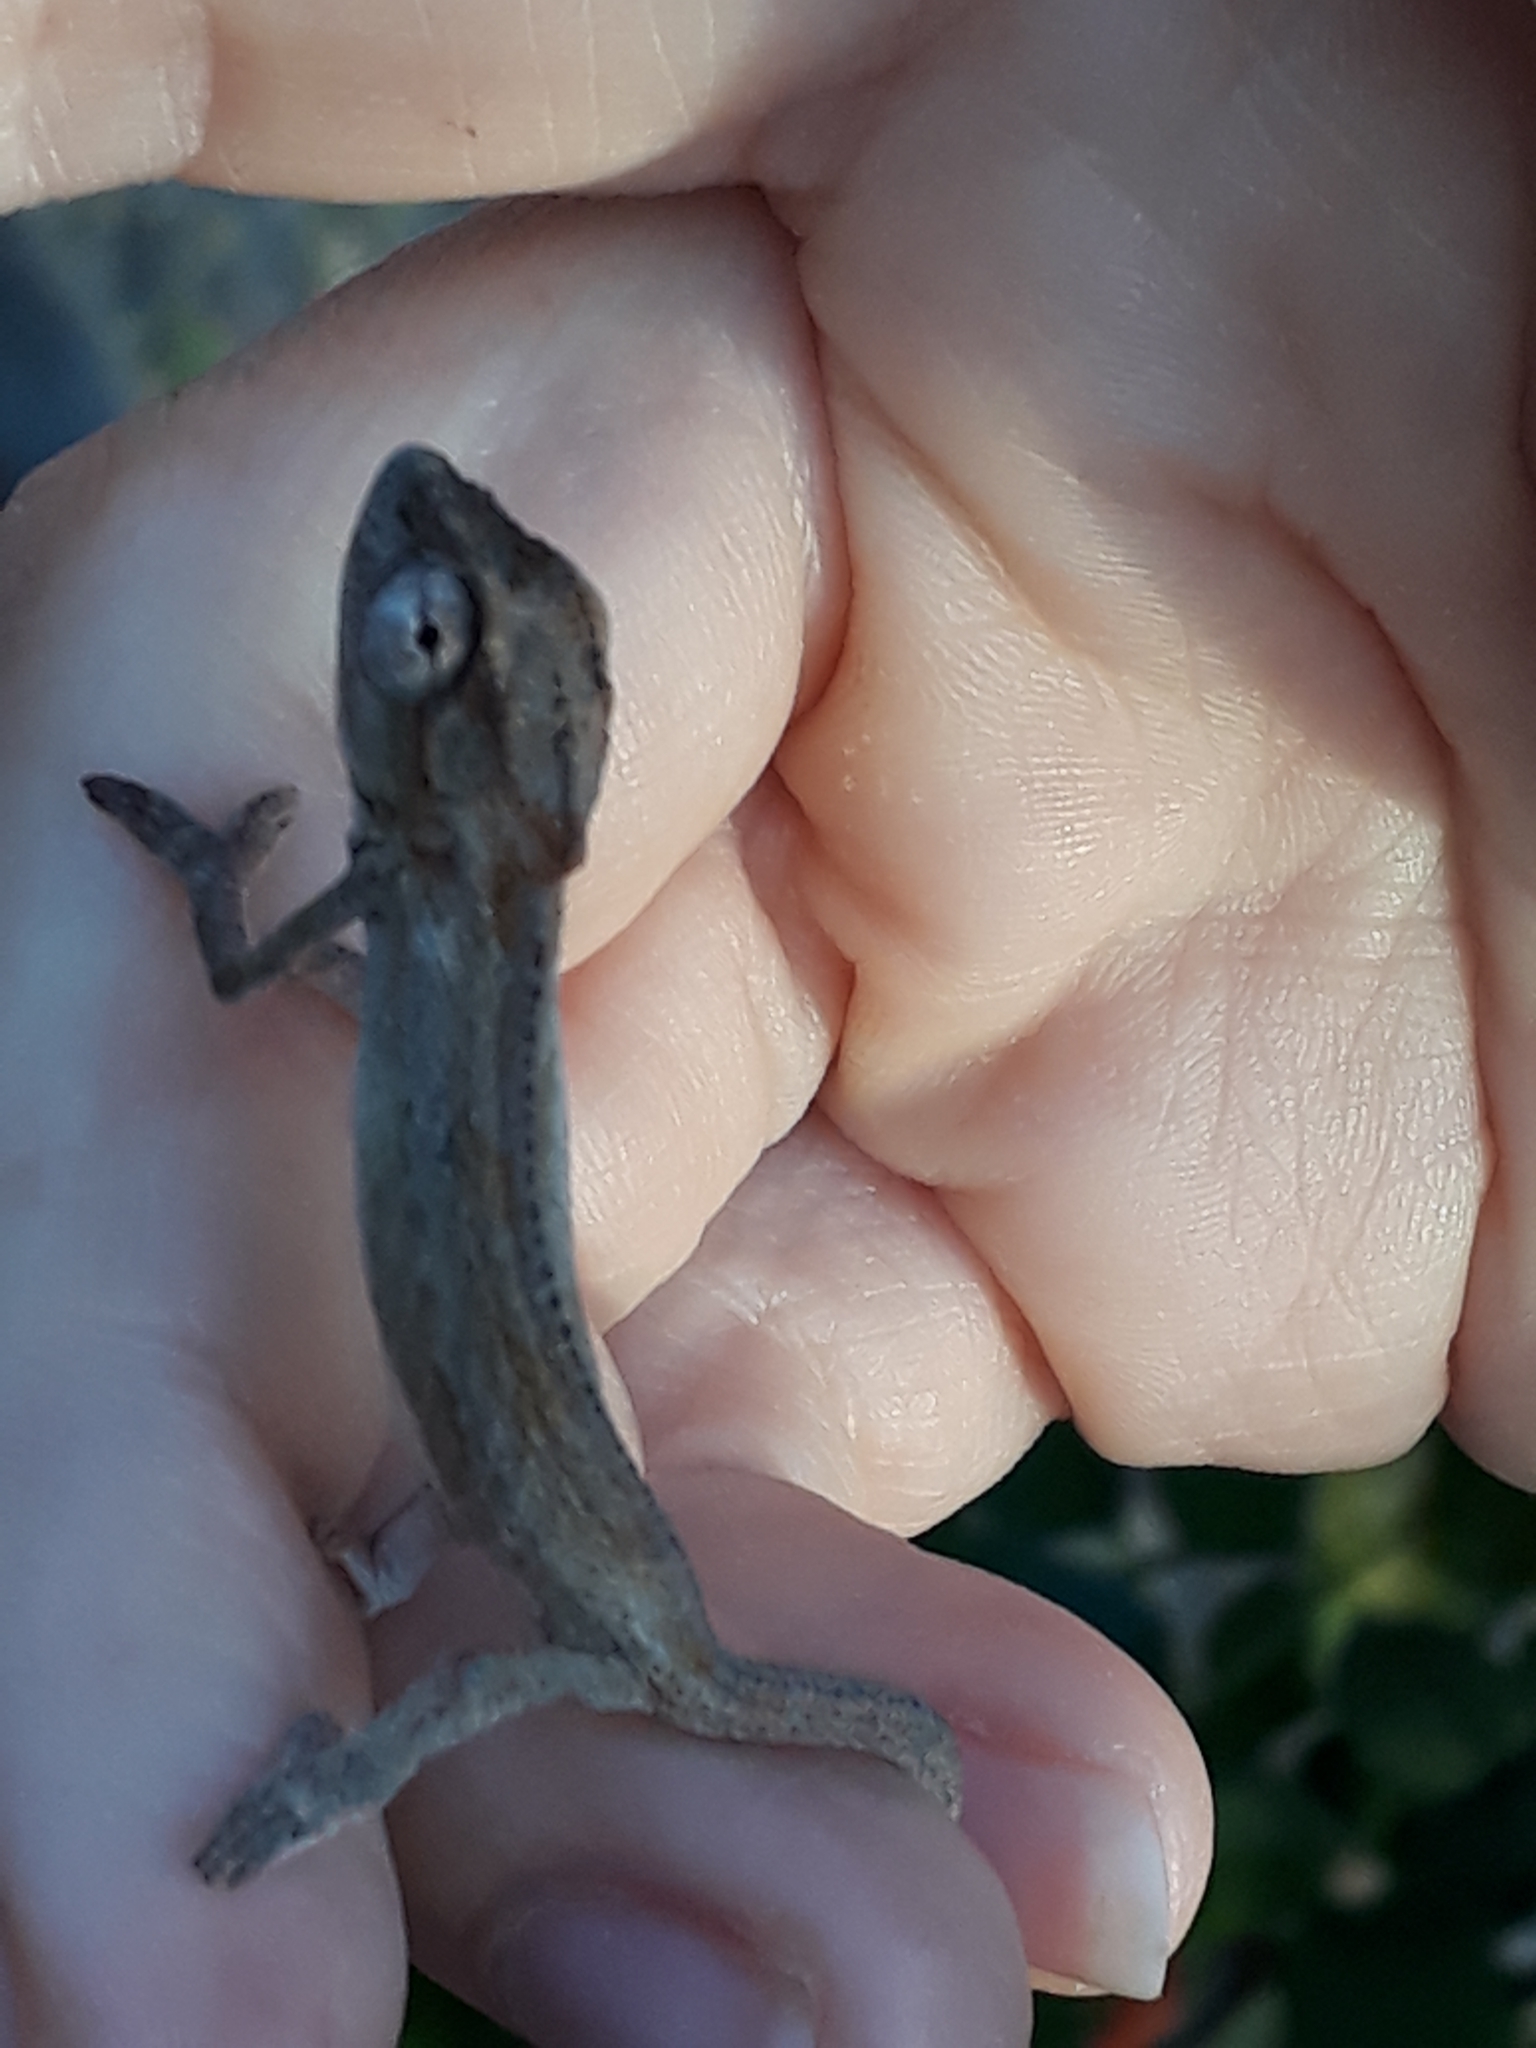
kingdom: Animalia
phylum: Chordata
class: Squamata
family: Chamaeleonidae
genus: Bradypodion
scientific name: Bradypodion pumilum
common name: Cape dwarf chameleon
